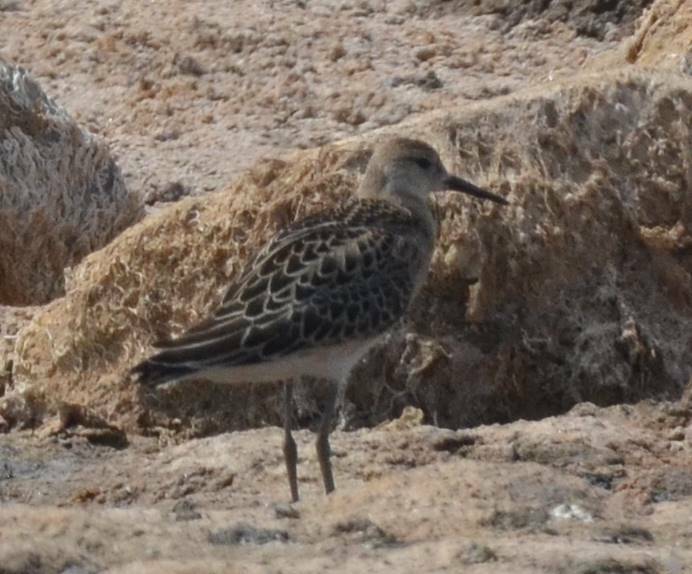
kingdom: Animalia
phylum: Chordata
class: Aves
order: Charadriiformes
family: Scolopacidae
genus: Calidris
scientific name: Calidris pugnax
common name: Ruff
